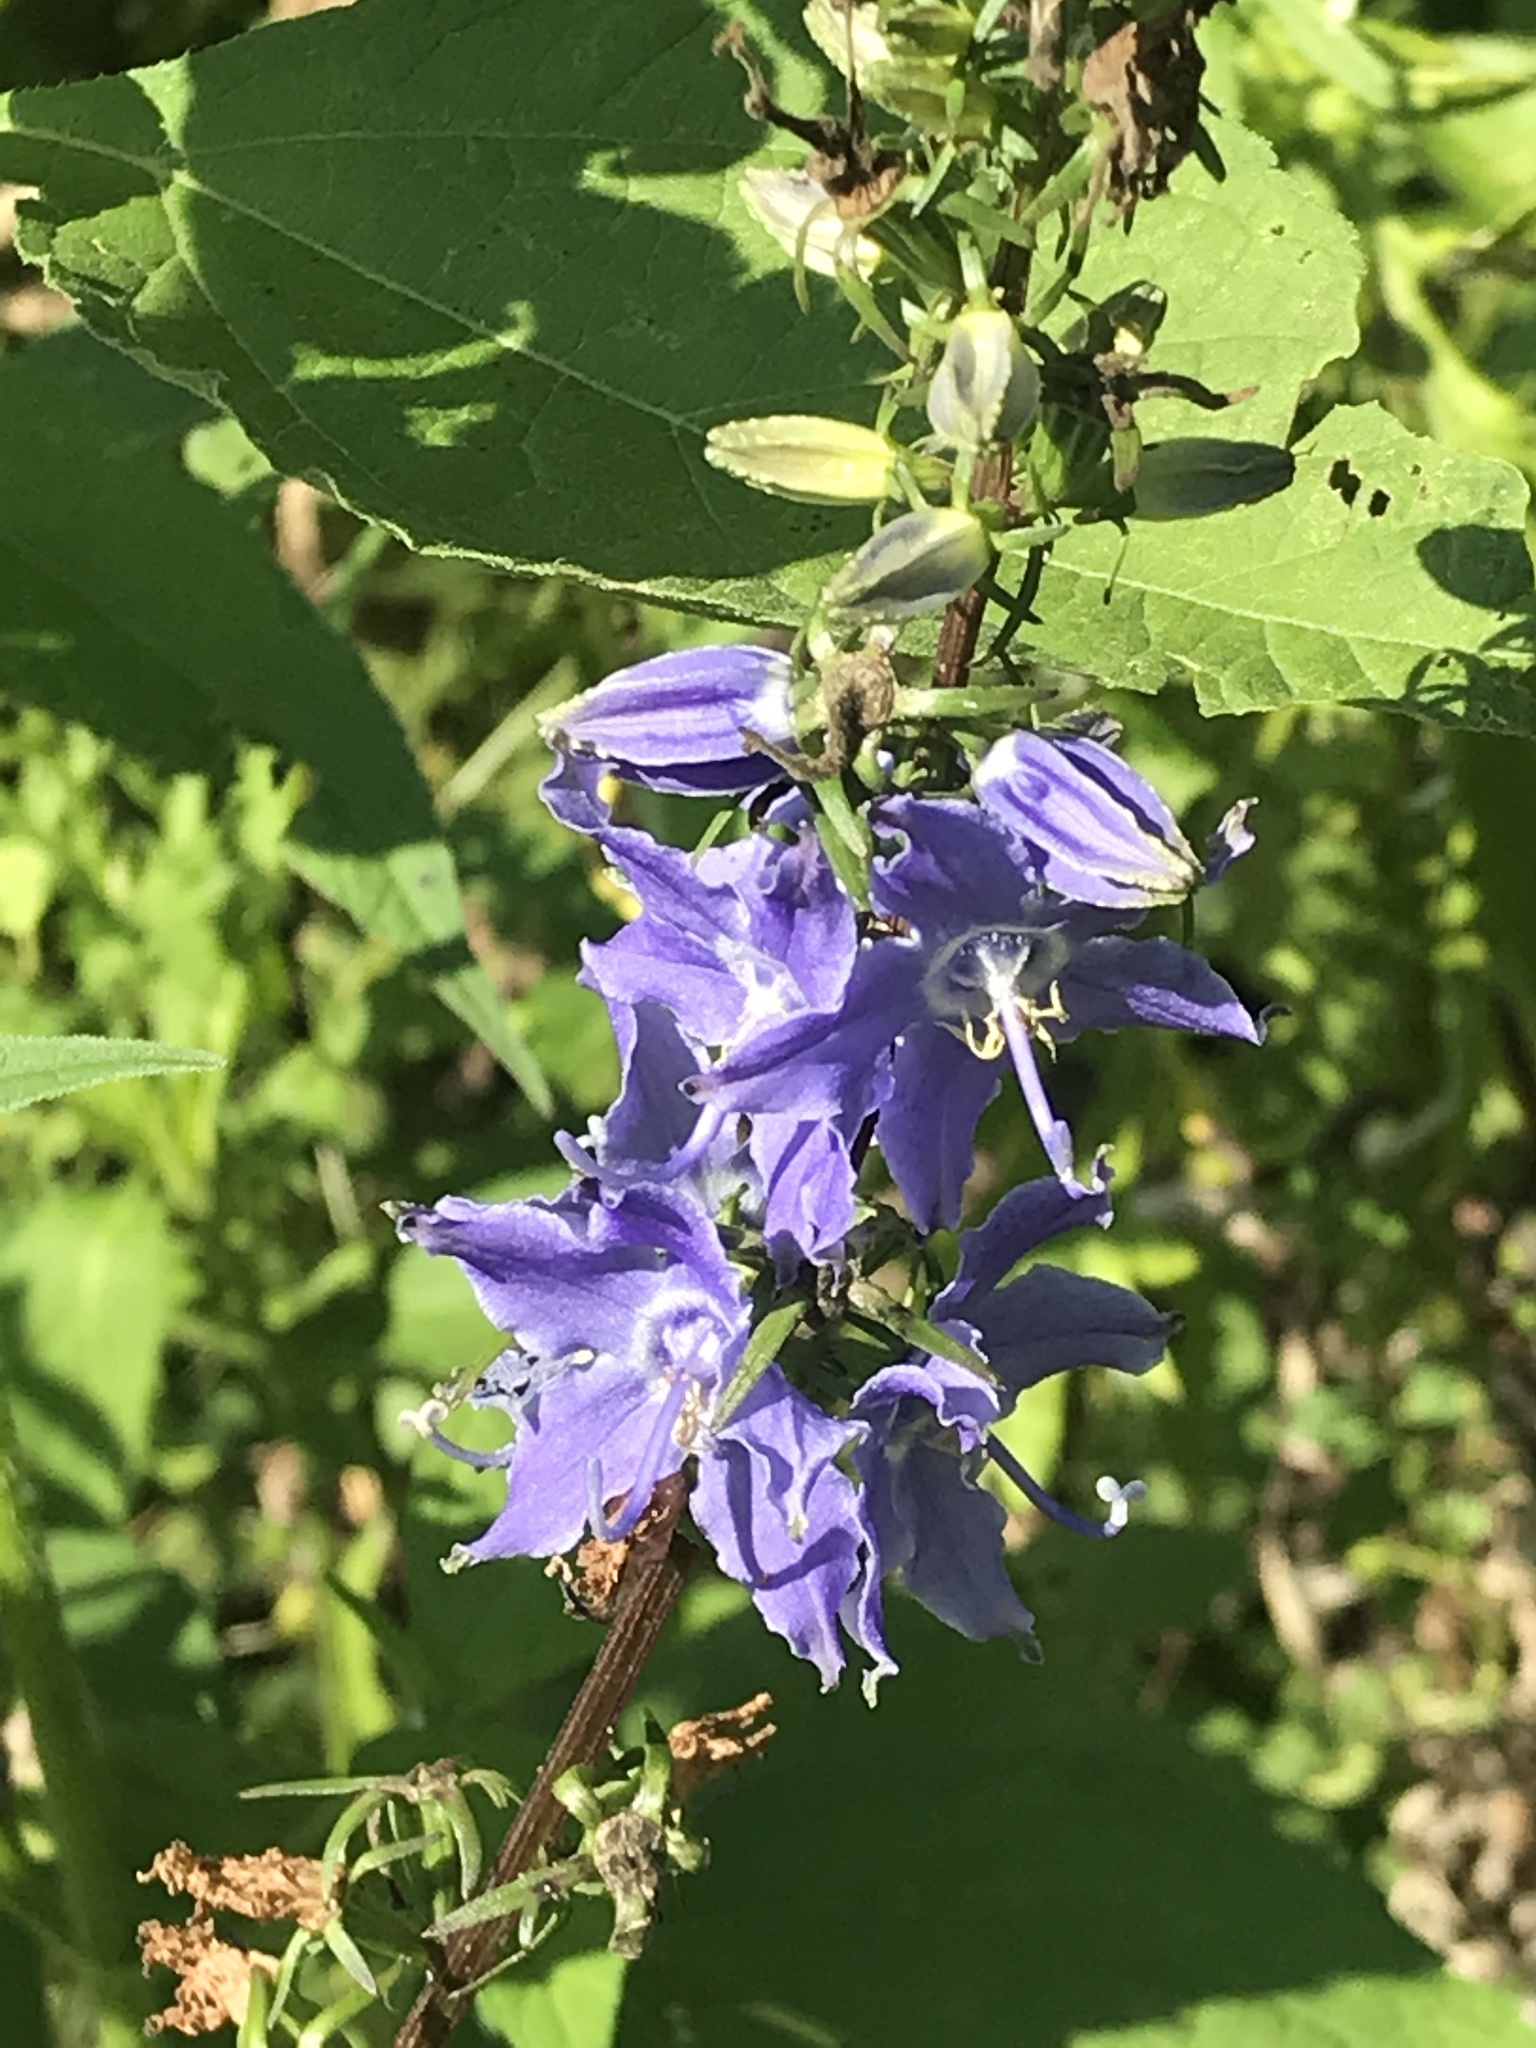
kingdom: Plantae
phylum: Tracheophyta
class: Magnoliopsida
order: Asterales
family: Campanulaceae
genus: Campanulastrum
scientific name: Campanulastrum americanum
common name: American bellflower
